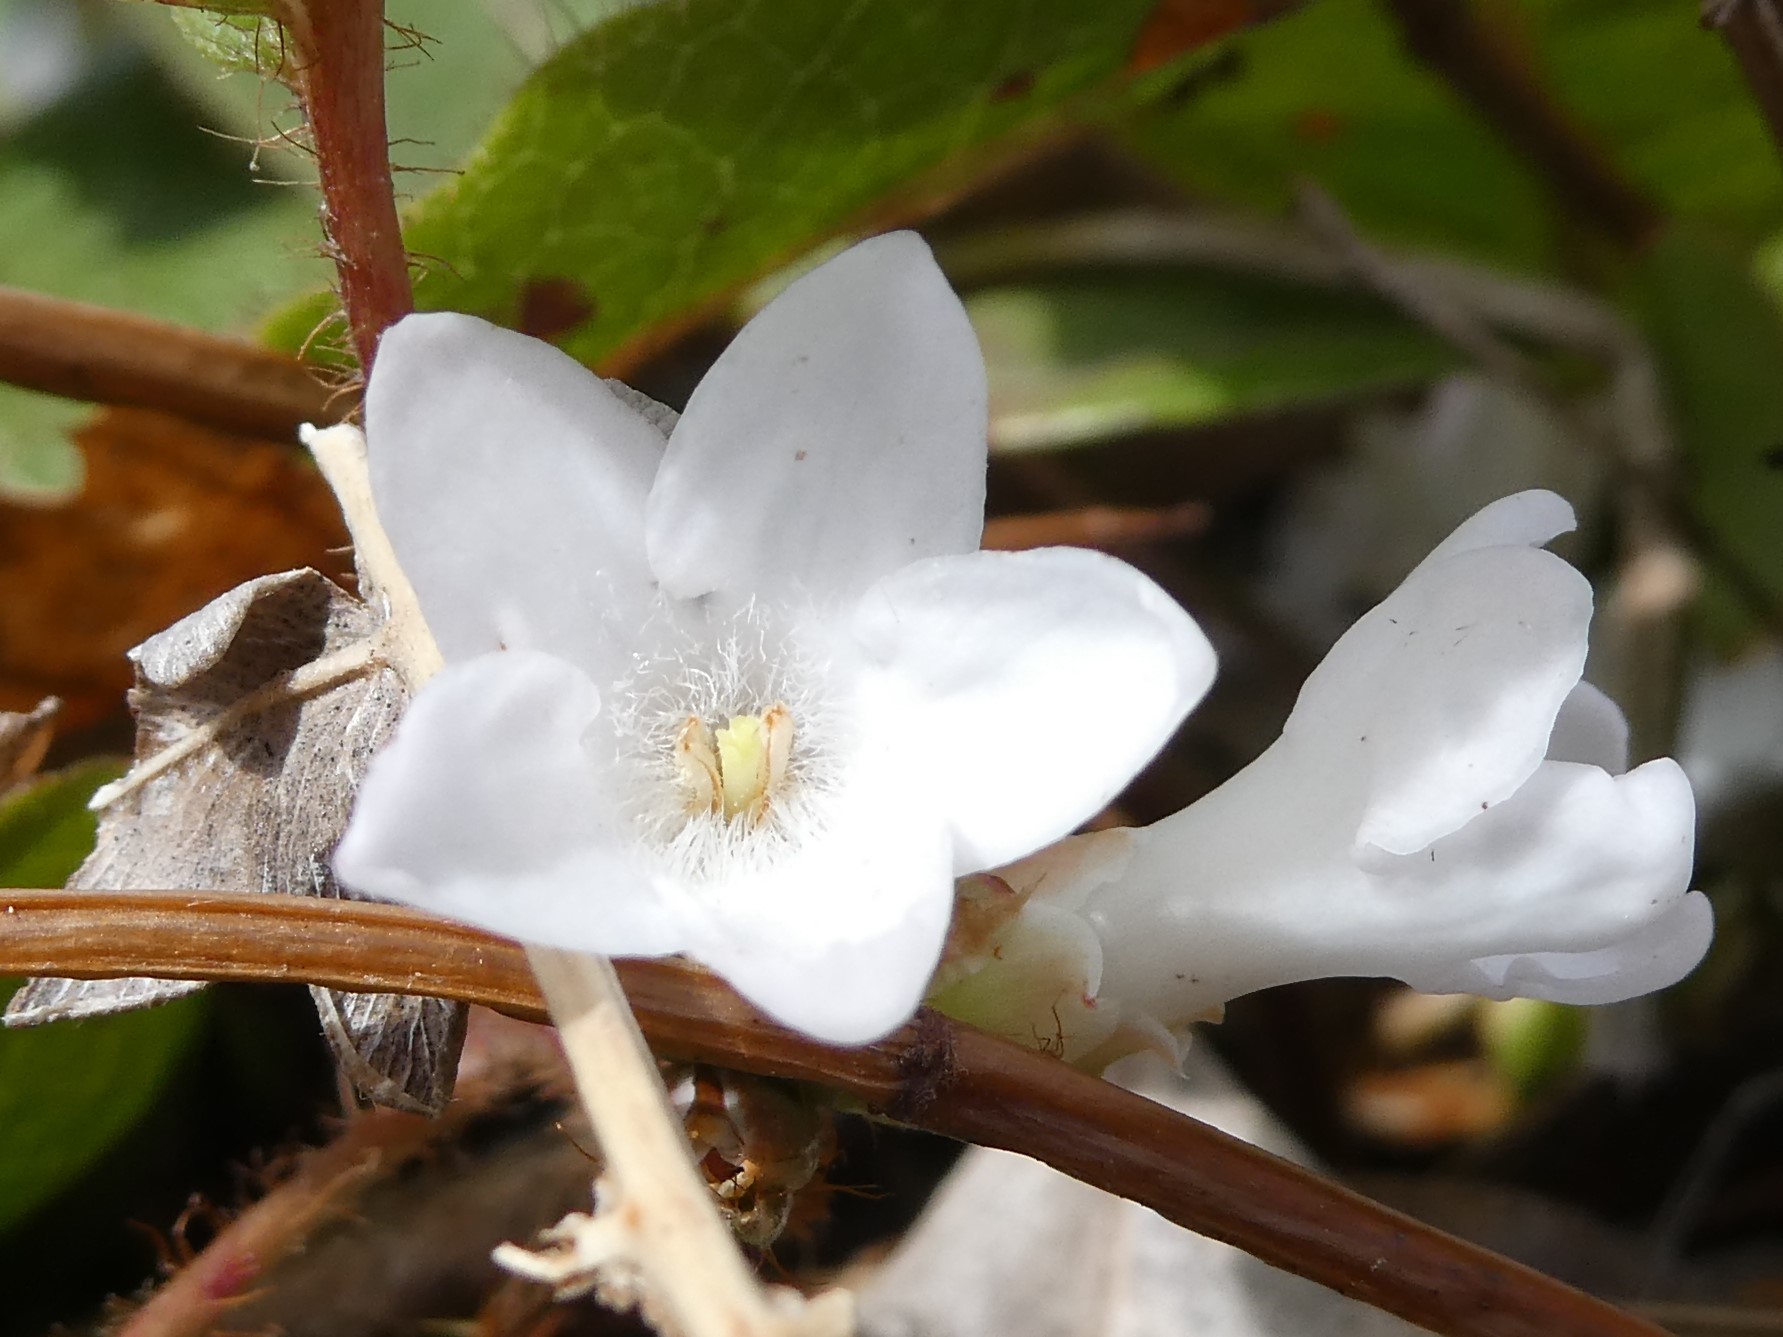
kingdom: Plantae
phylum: Tracheophyta
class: Magnoliopsida
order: Ericales
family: Ericaceae
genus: Epigaea
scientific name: Epigaea repens
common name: Gravelroot
